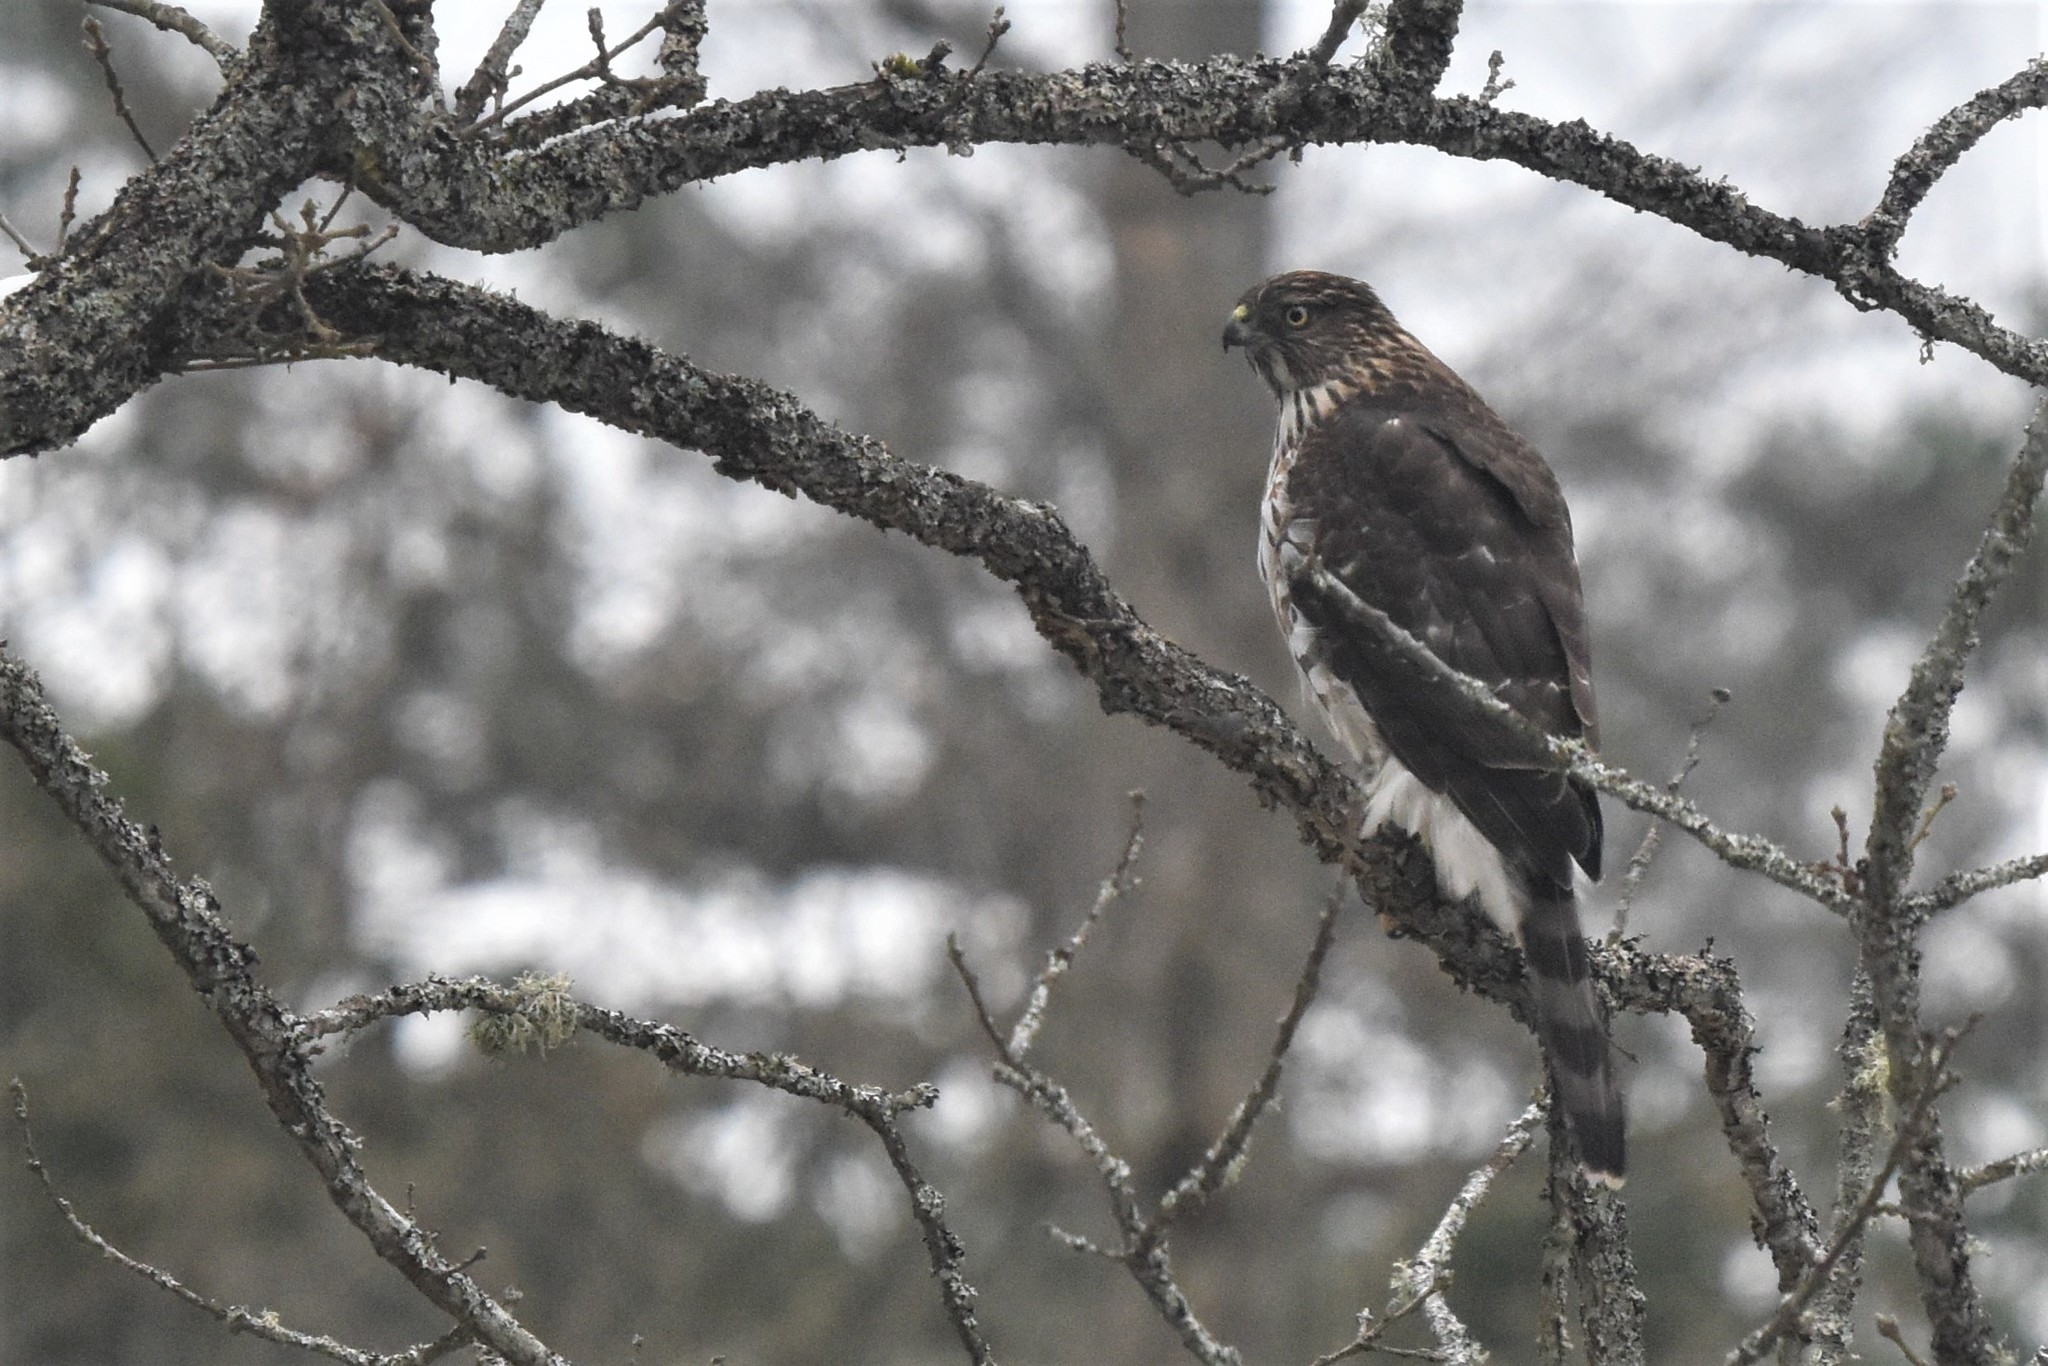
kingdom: Animalia
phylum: Chordata
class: Aves
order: Accipitriformes
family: Accipitridae
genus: Accipiter
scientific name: Accipiter cooperii
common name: Cooper's hawk
